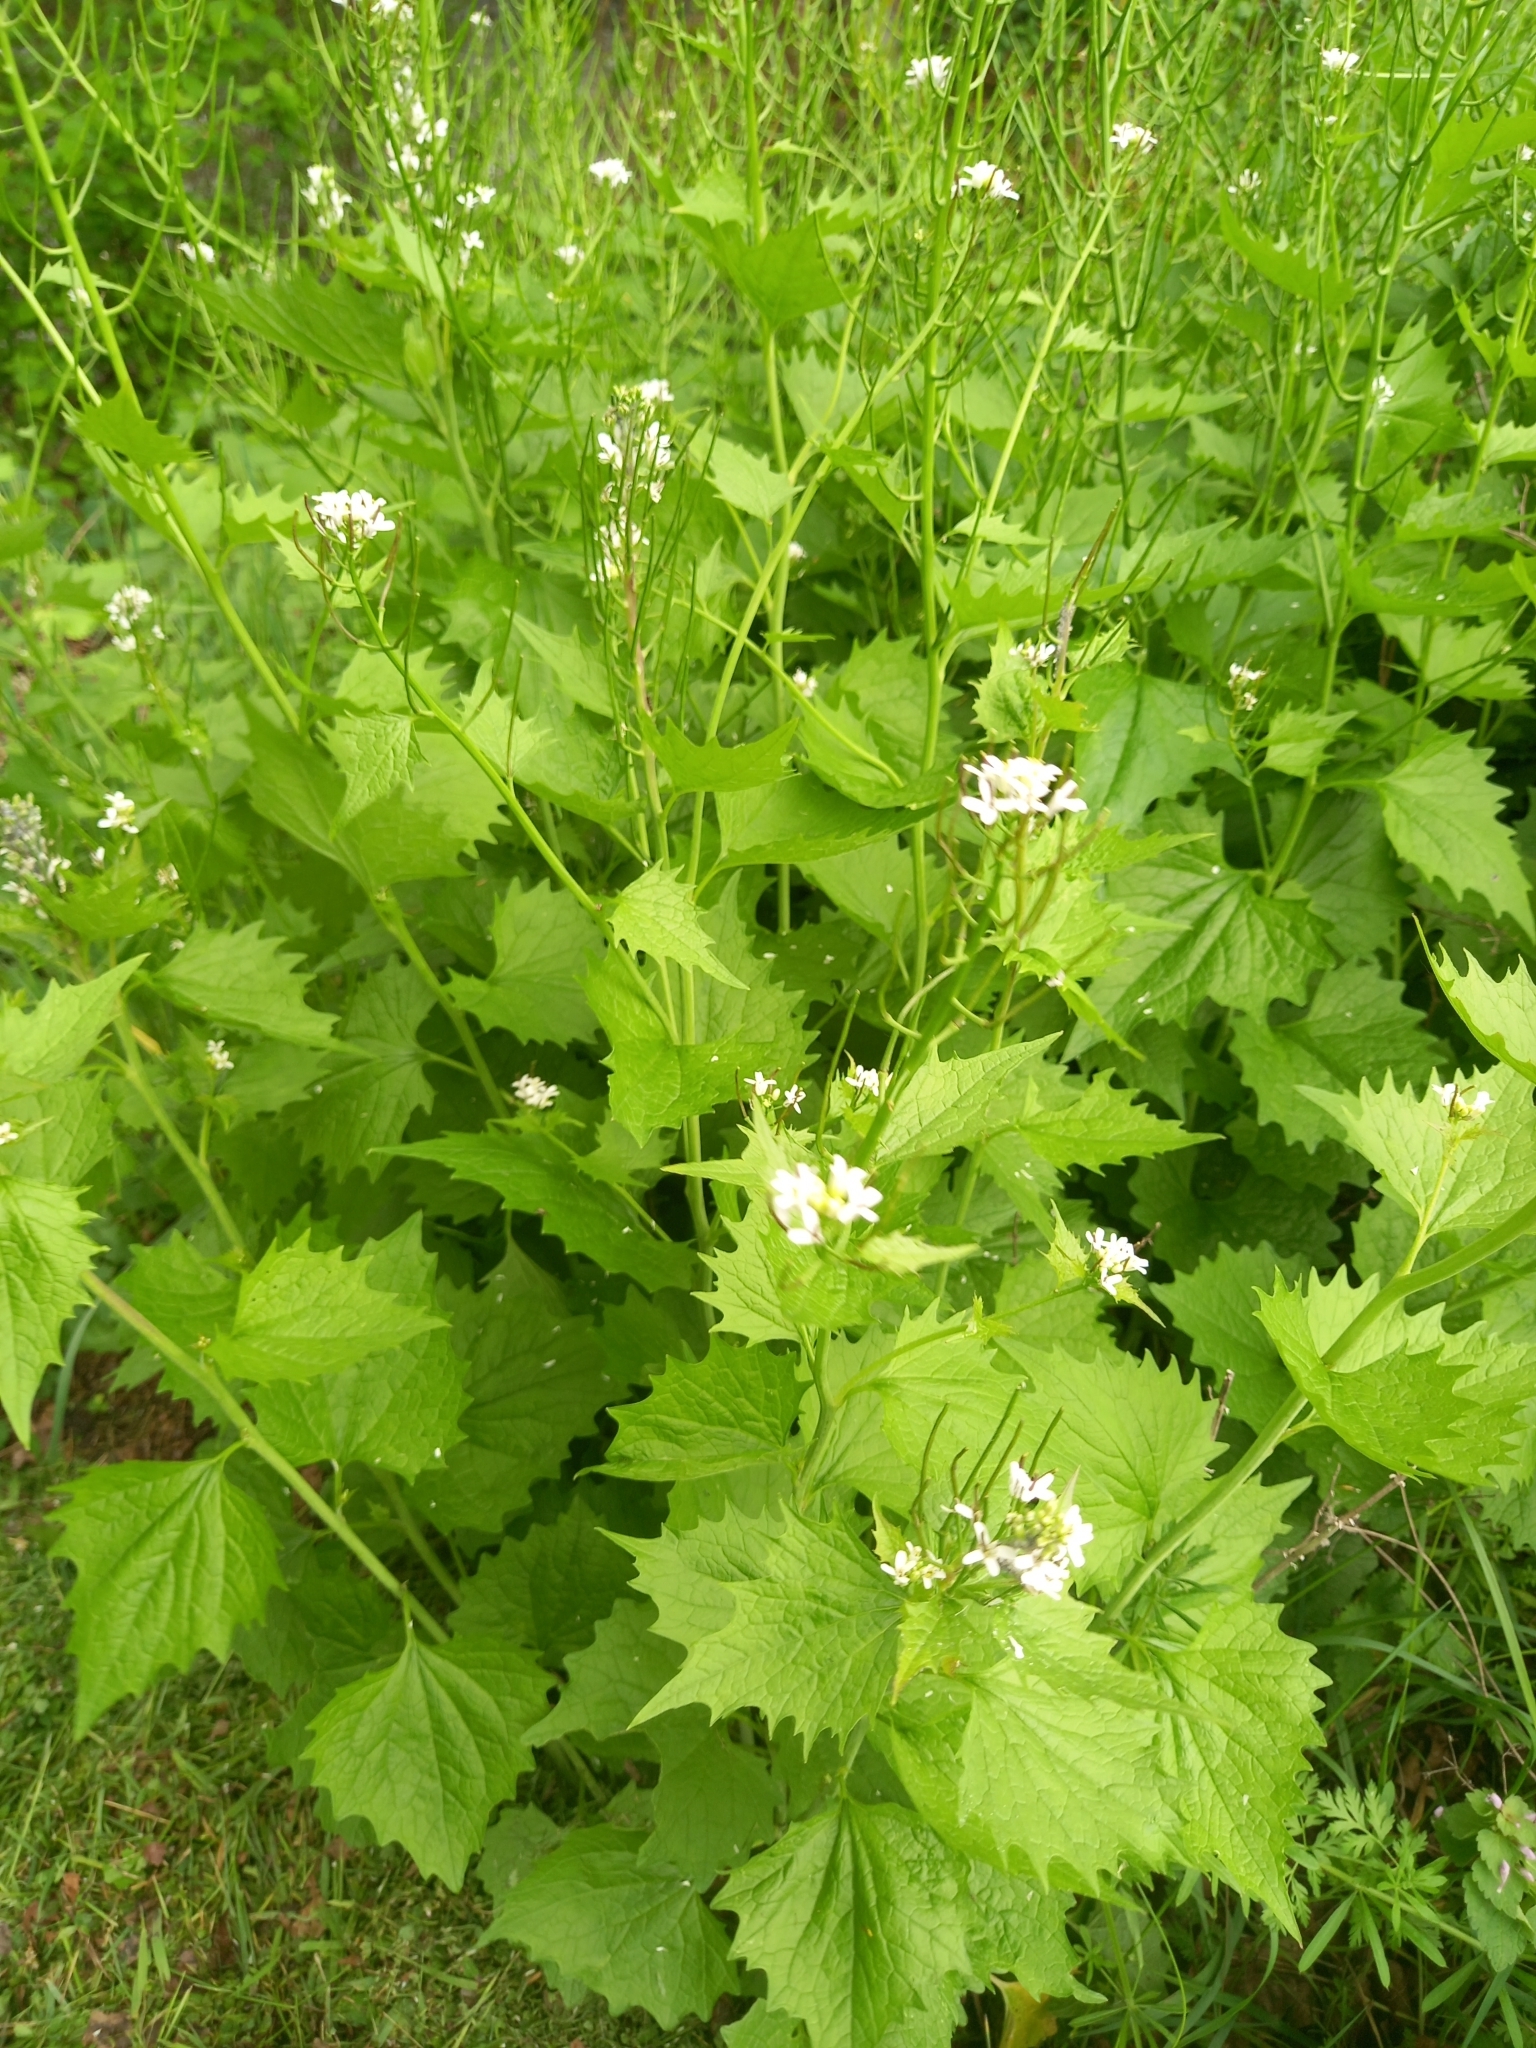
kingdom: Plantae
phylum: Tracheophyta
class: Magnoliopsida
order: Brassicales
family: Brassicaceae
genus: Alliaria
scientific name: Alliaria petiolata
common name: Garlic mustard
